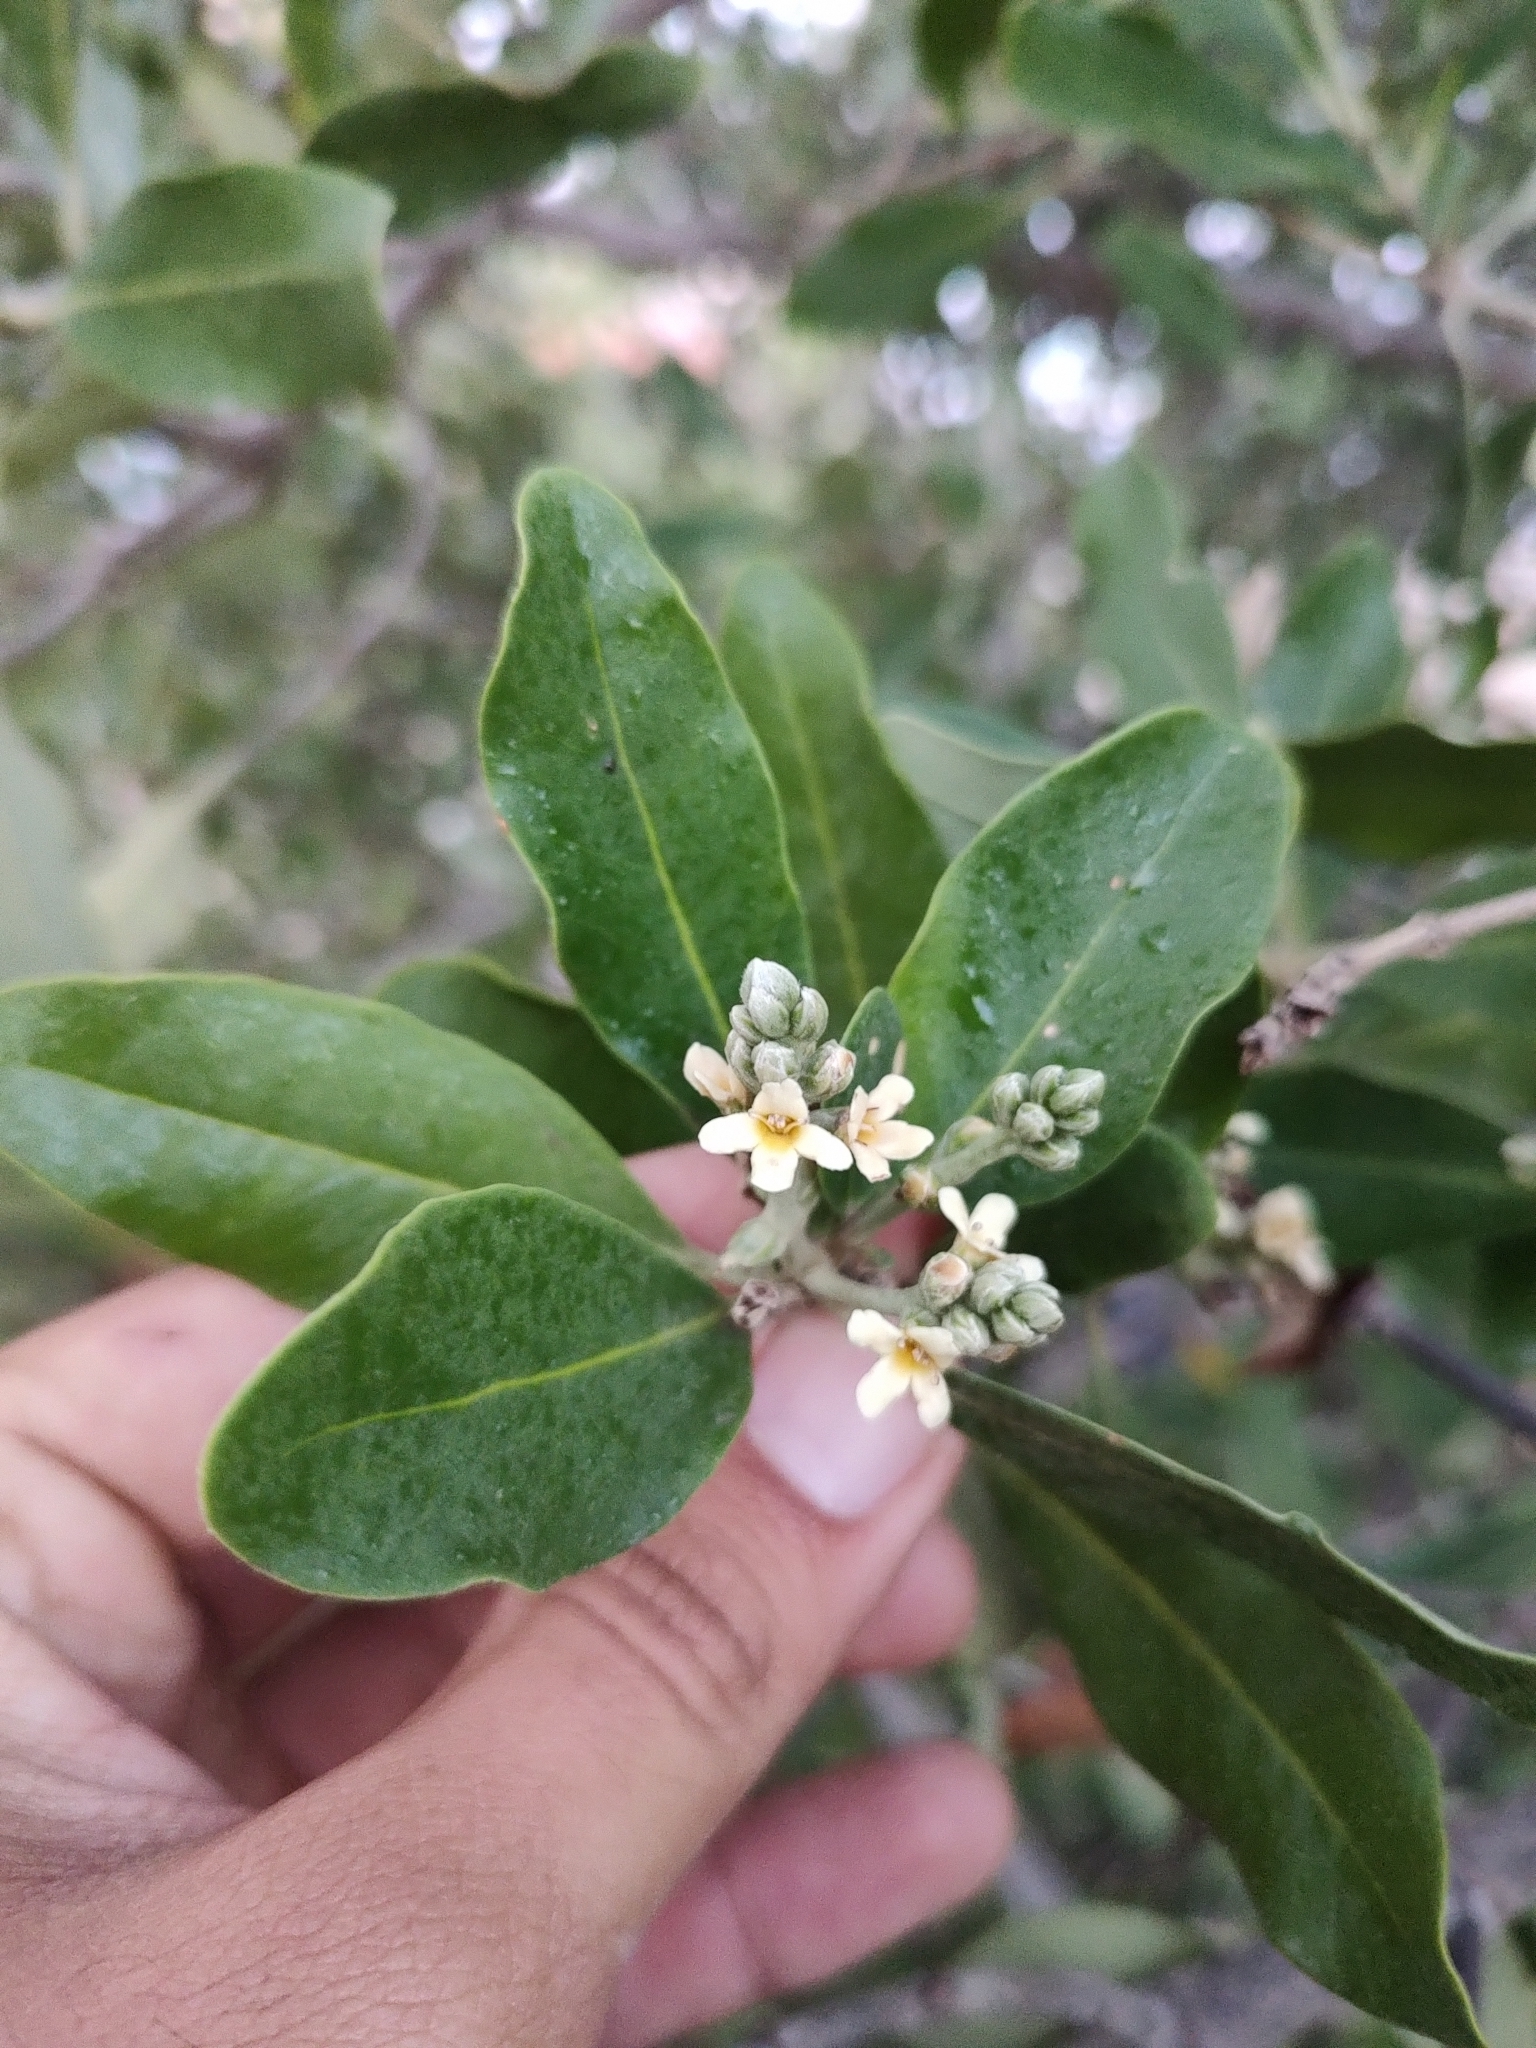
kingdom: Plantae
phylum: Tracheophyta
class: Magnoliopsida
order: Lamiales
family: Acanthaceae
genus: Avicennia
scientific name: Avicennia germinans
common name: Black mangrove
